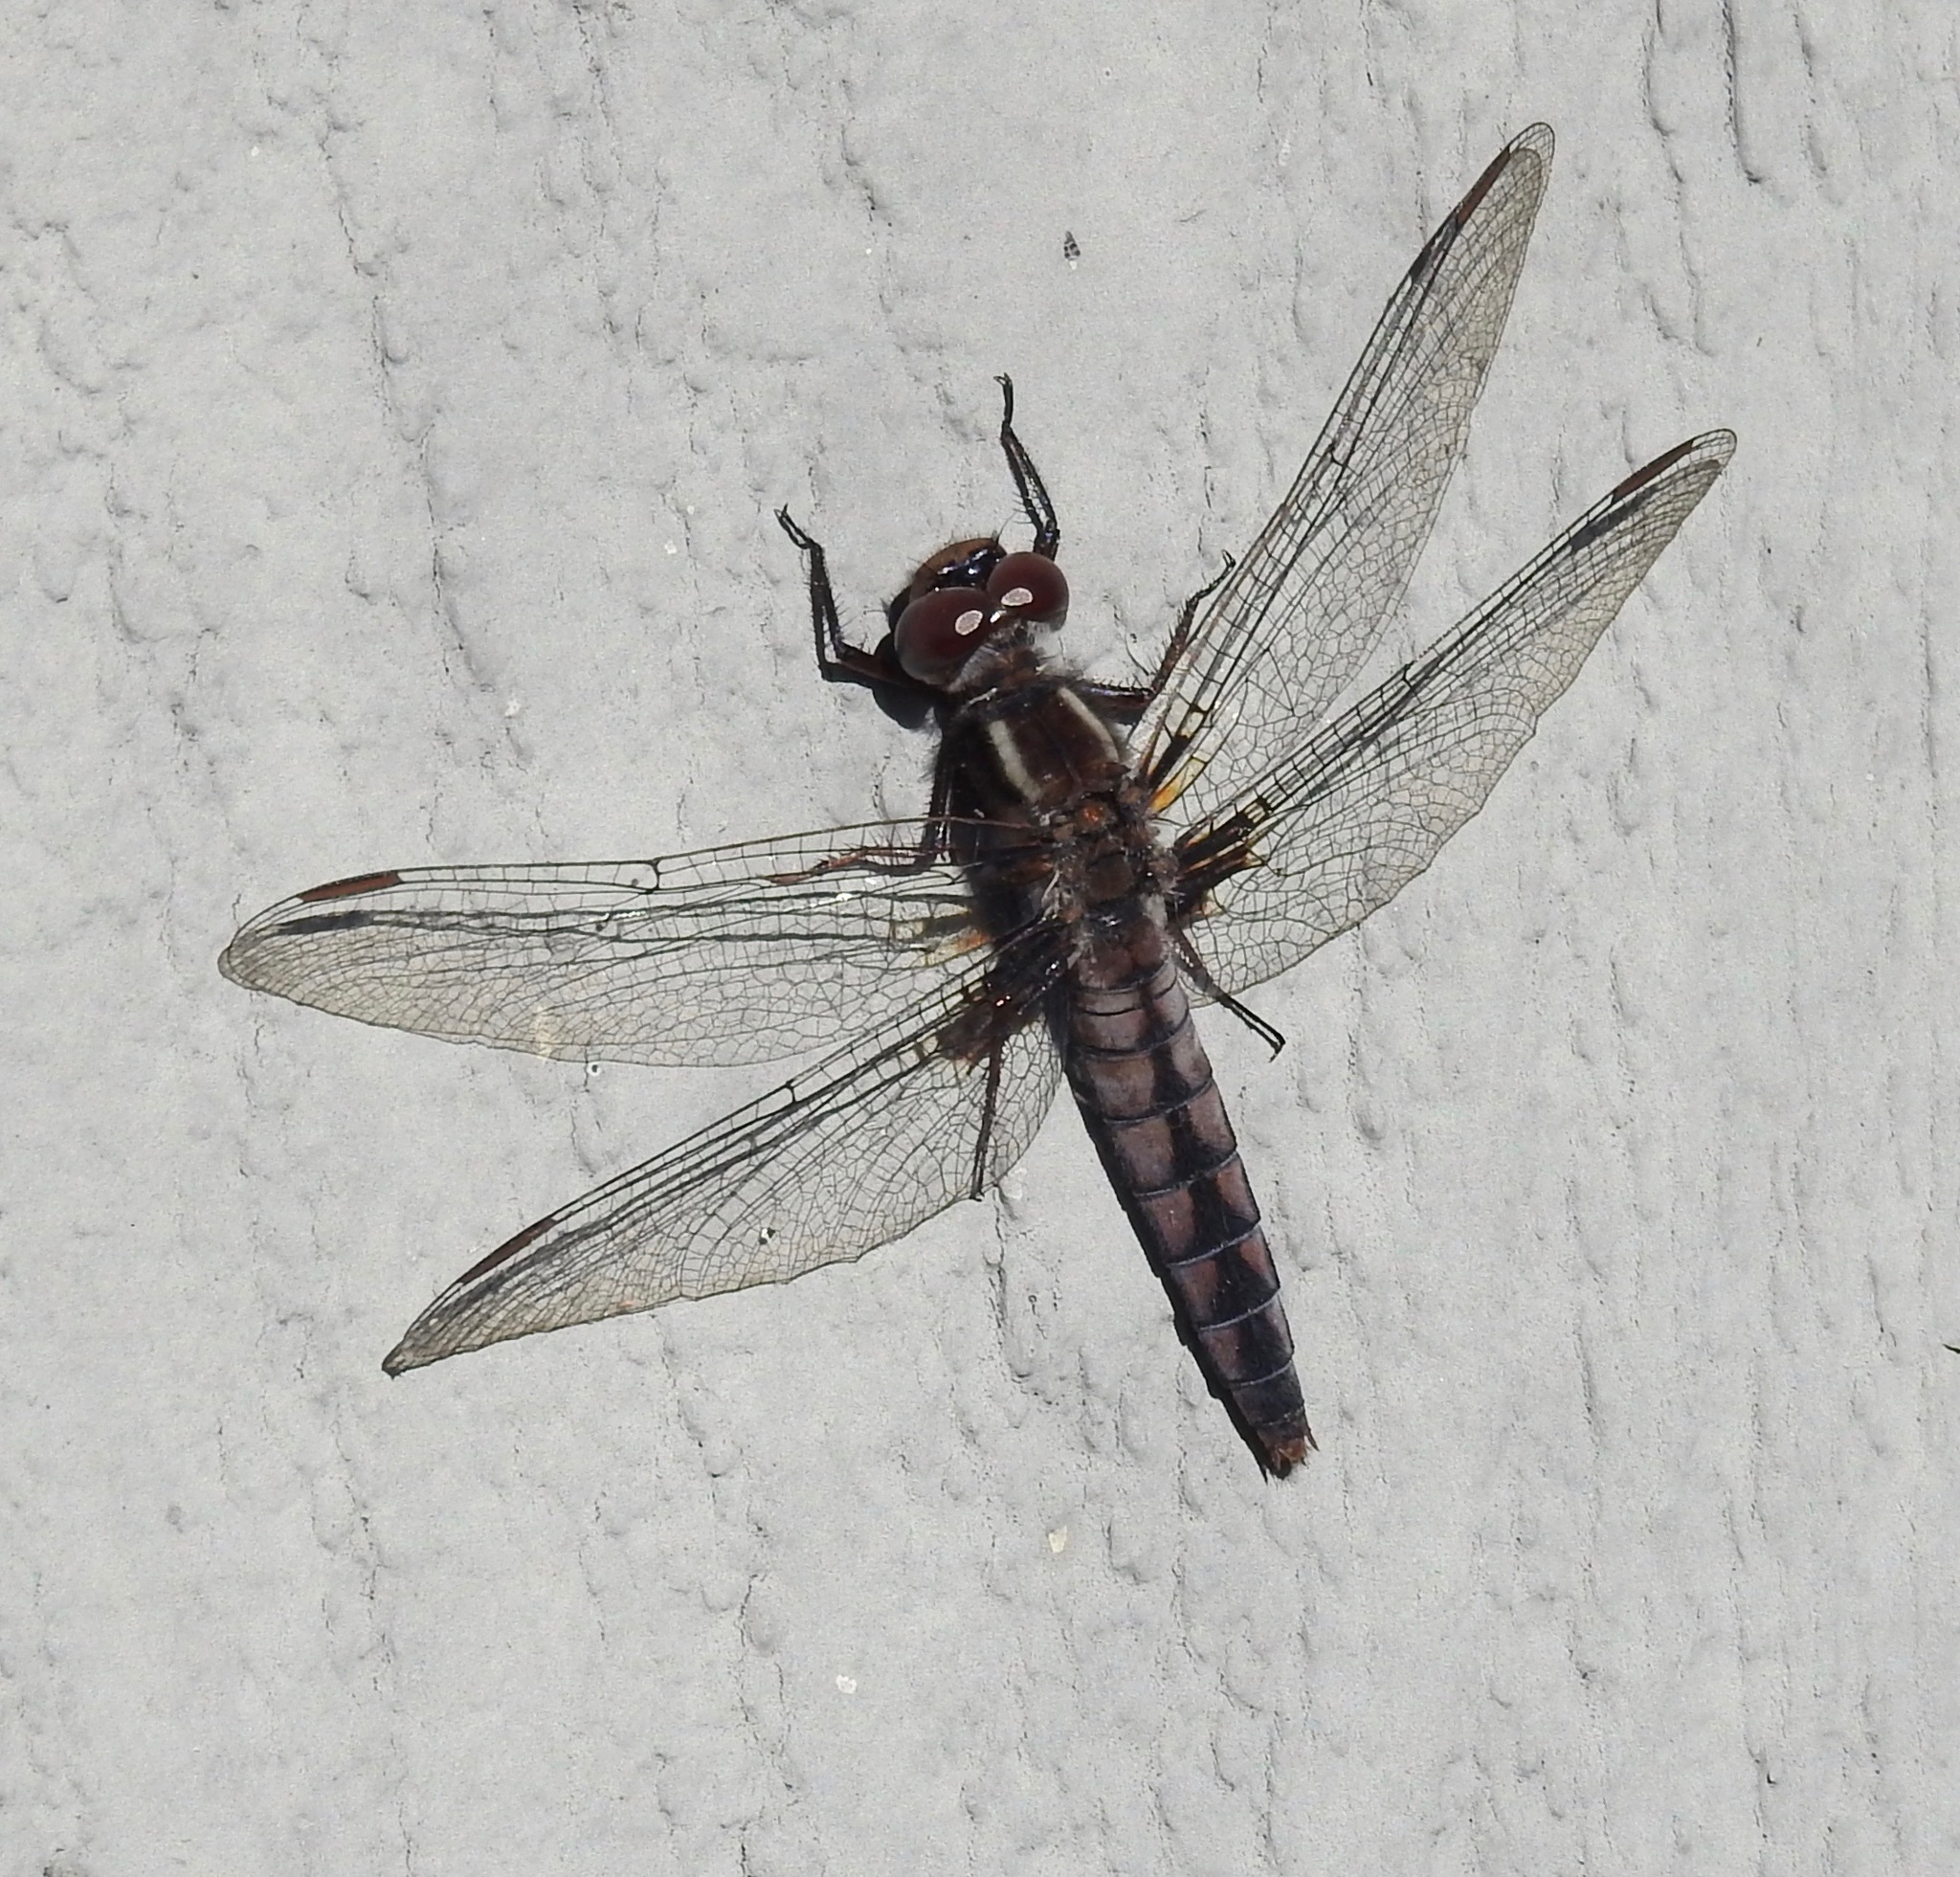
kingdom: Animalia
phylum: Arthropoda
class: Insecta
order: Odonata
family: Libellulidae
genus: Ladona
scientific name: Ladona deplanata
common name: Blue corporal
